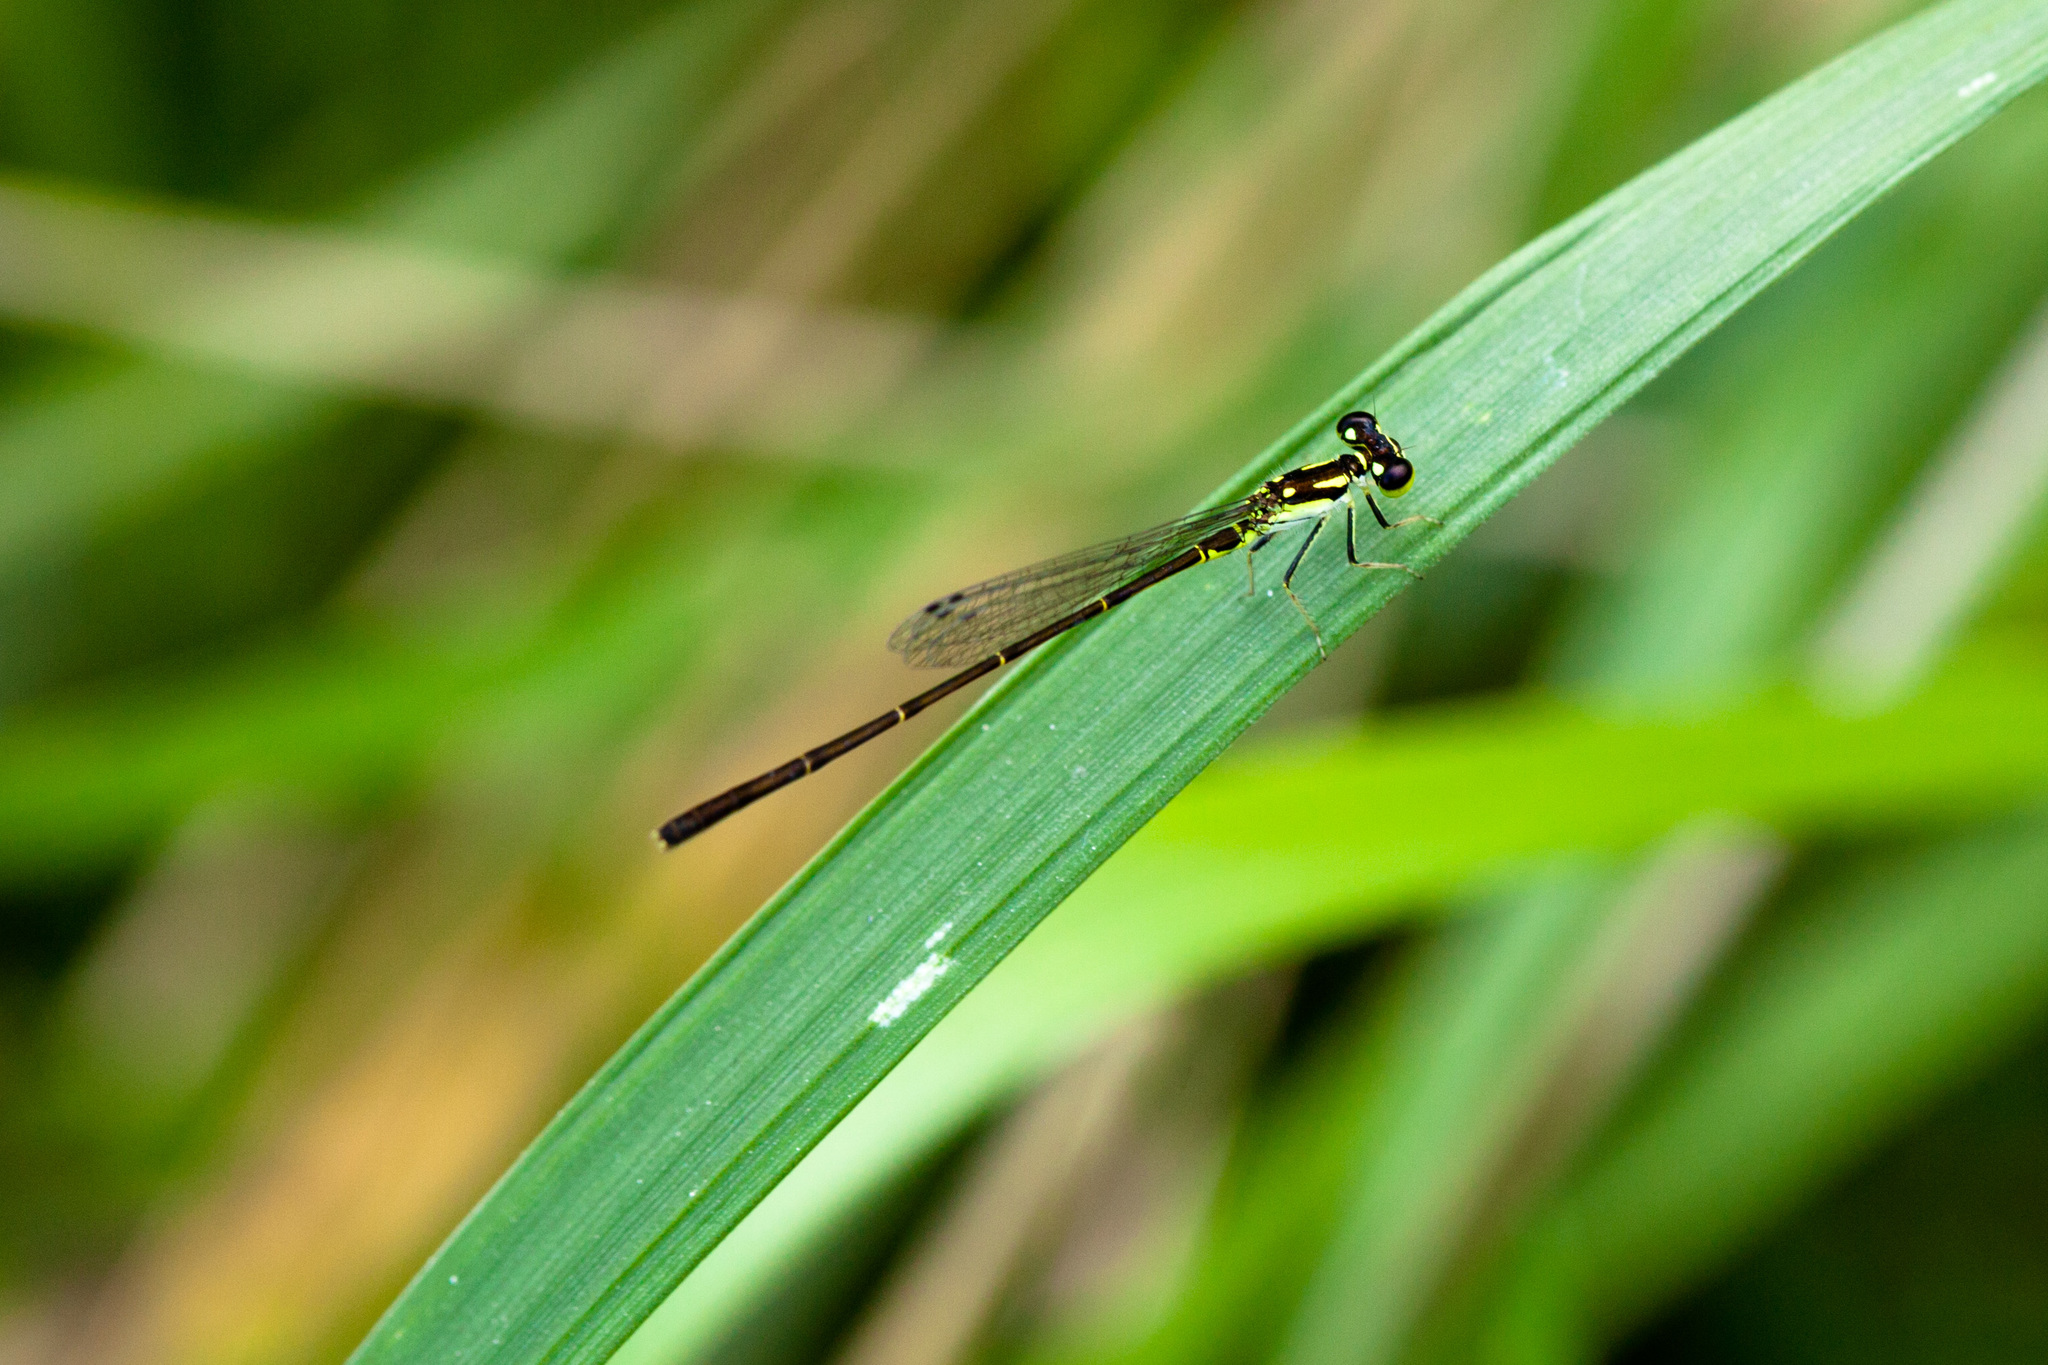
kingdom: Animalia
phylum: Arthropoda
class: Insecta
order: Odonata
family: Coenagrionidae
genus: Ischnura
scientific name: Ischnura posita
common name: Fragile forktail
